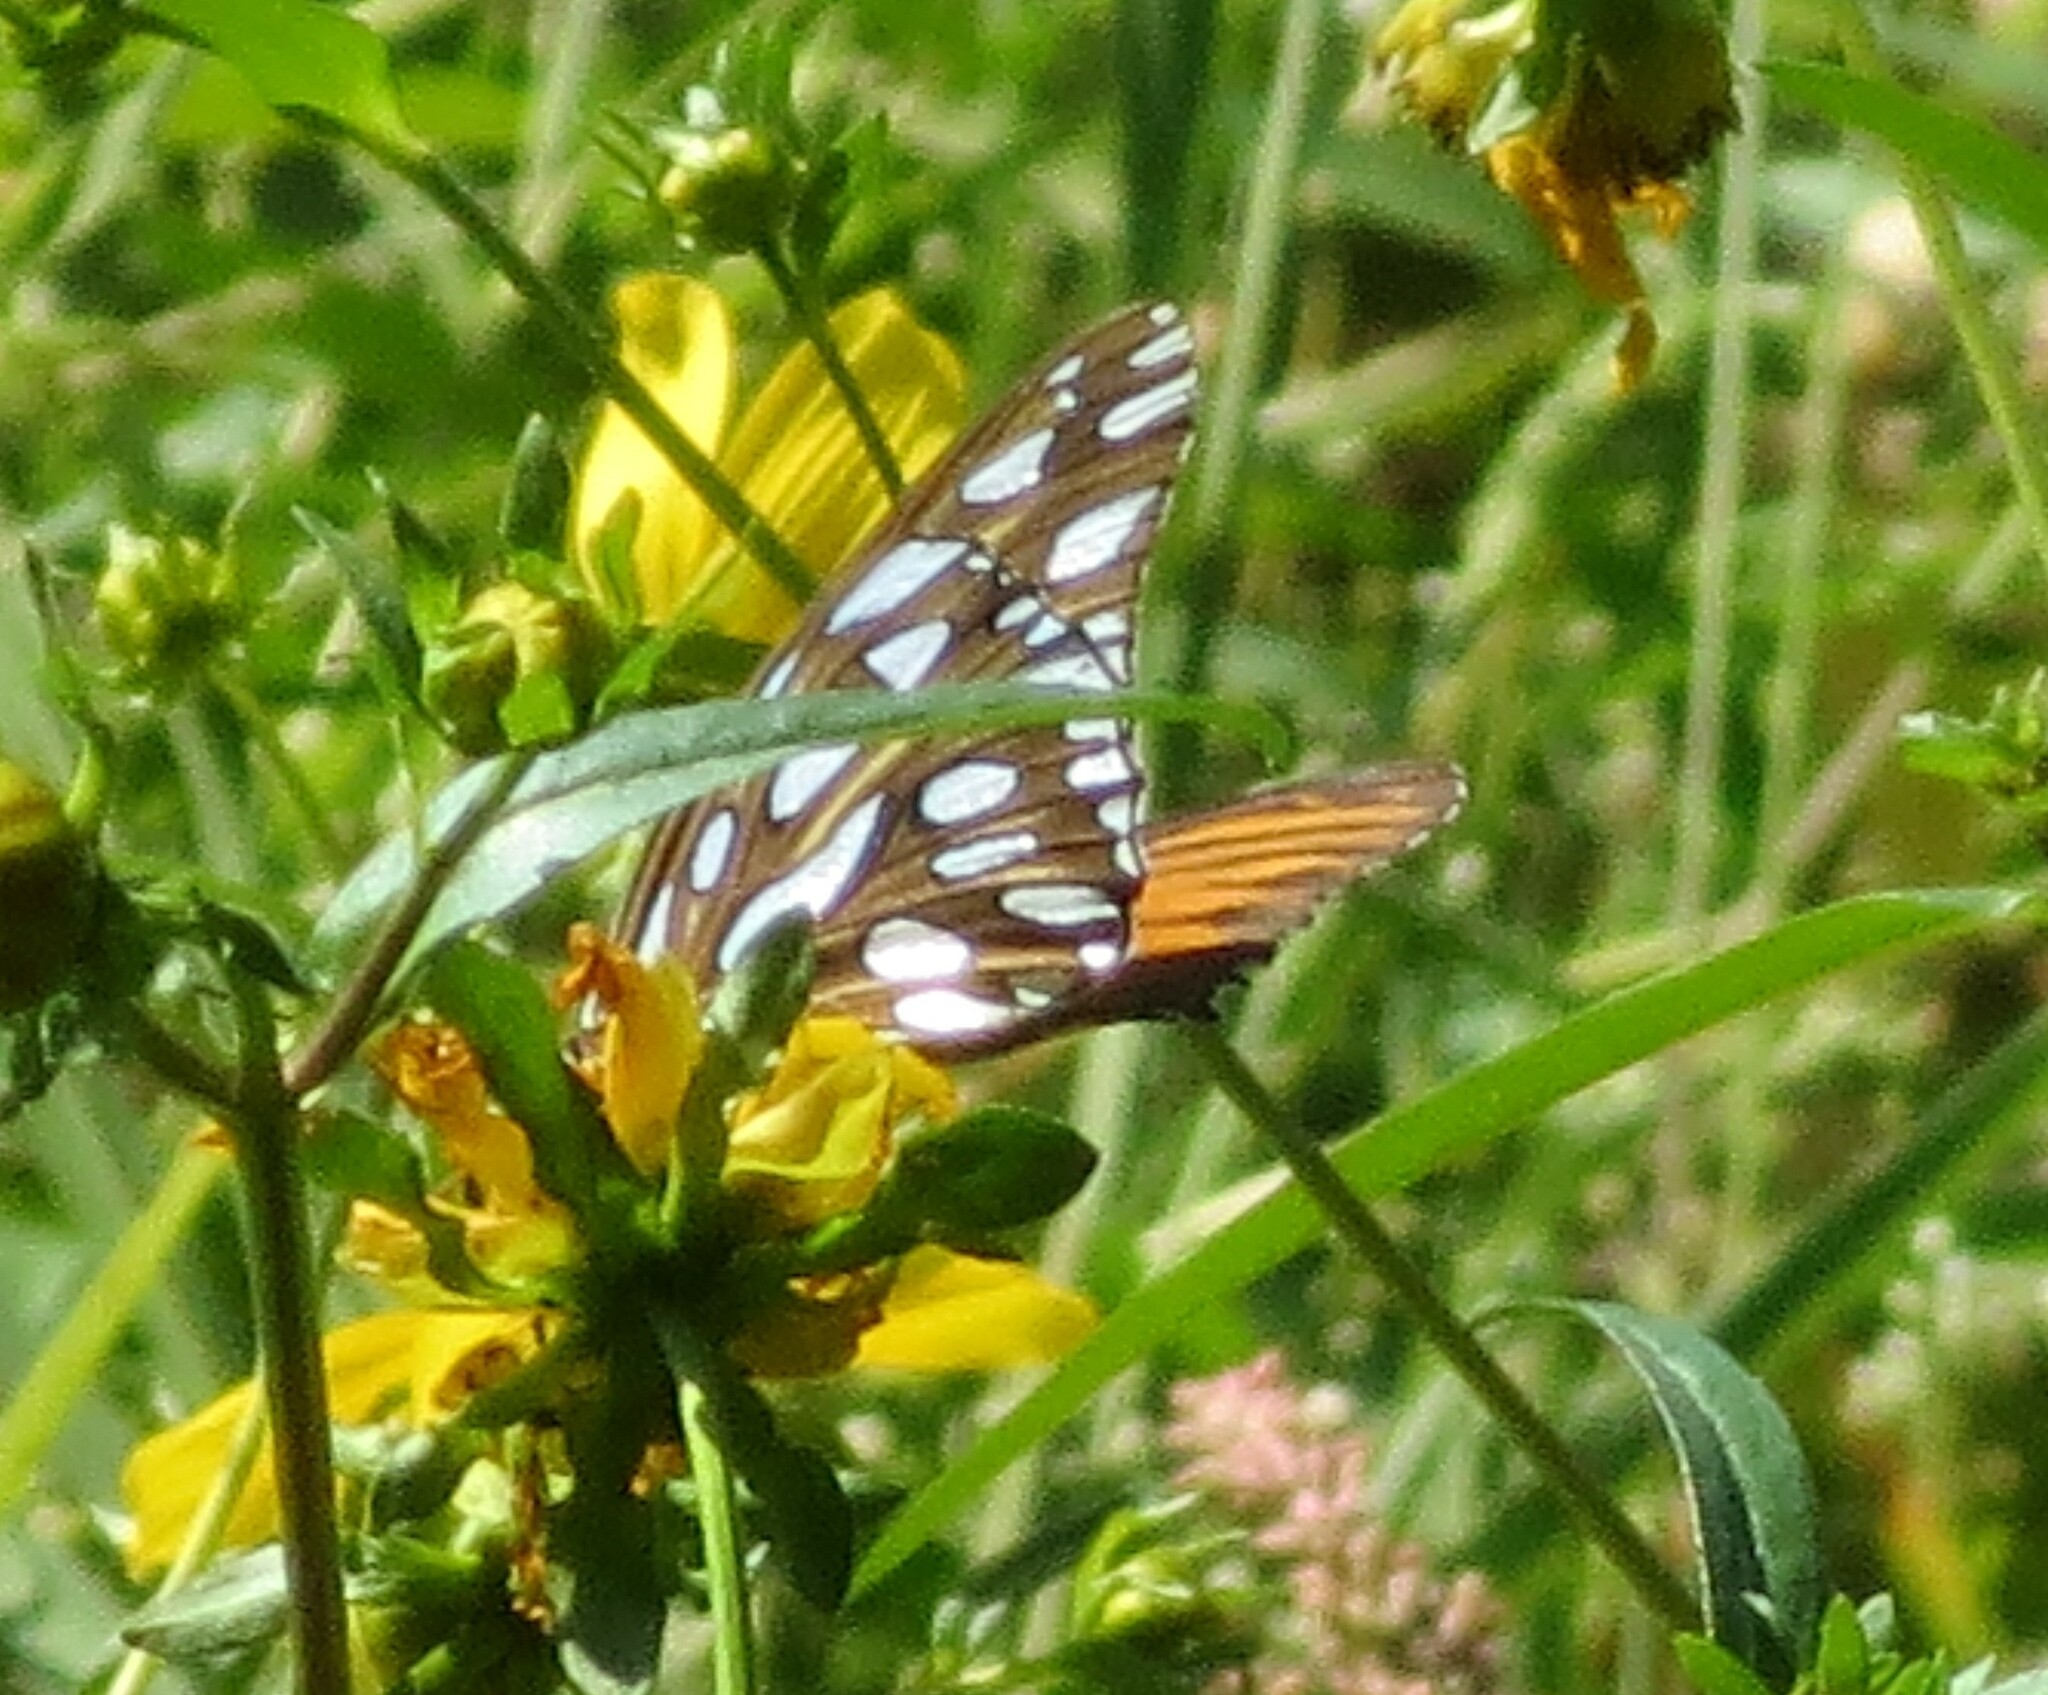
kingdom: Animalia
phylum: Arthropoda
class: Insecta
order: Lepidoptera
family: Nymphalidae
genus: Dione
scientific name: Dione vanillae
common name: Gulf fritillary
